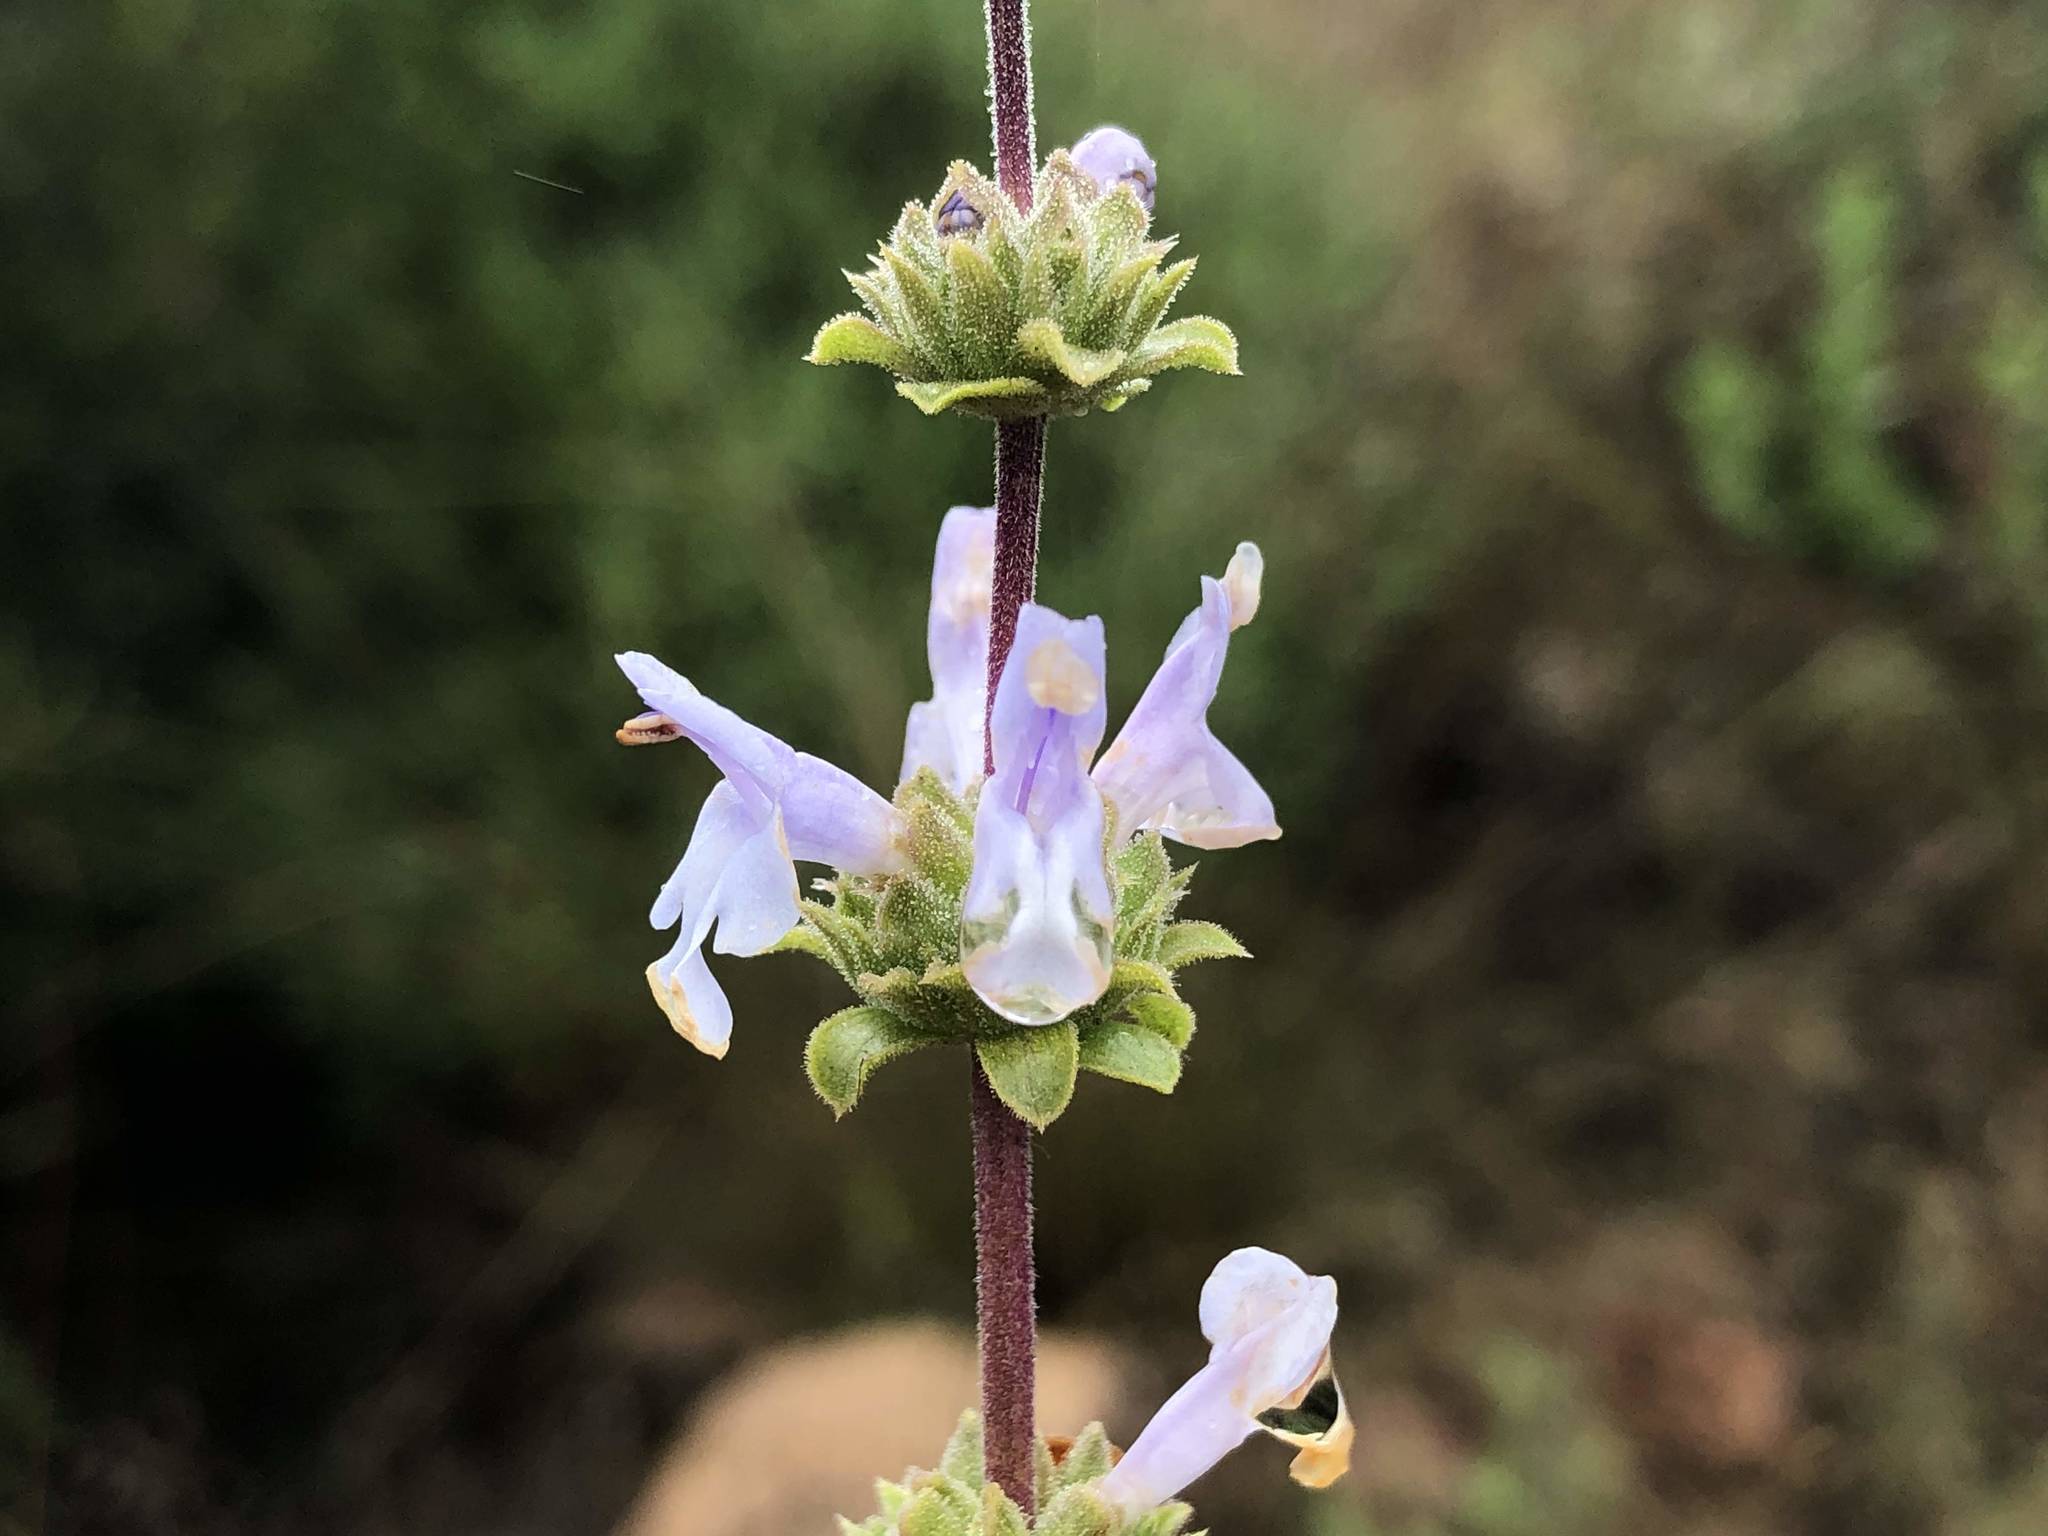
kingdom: Plantae
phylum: Tracheophyta
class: Magnoliopsida
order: Lamiales
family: Lamiaceae
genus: Salvia
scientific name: Salvia mellifera
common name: Black sage
